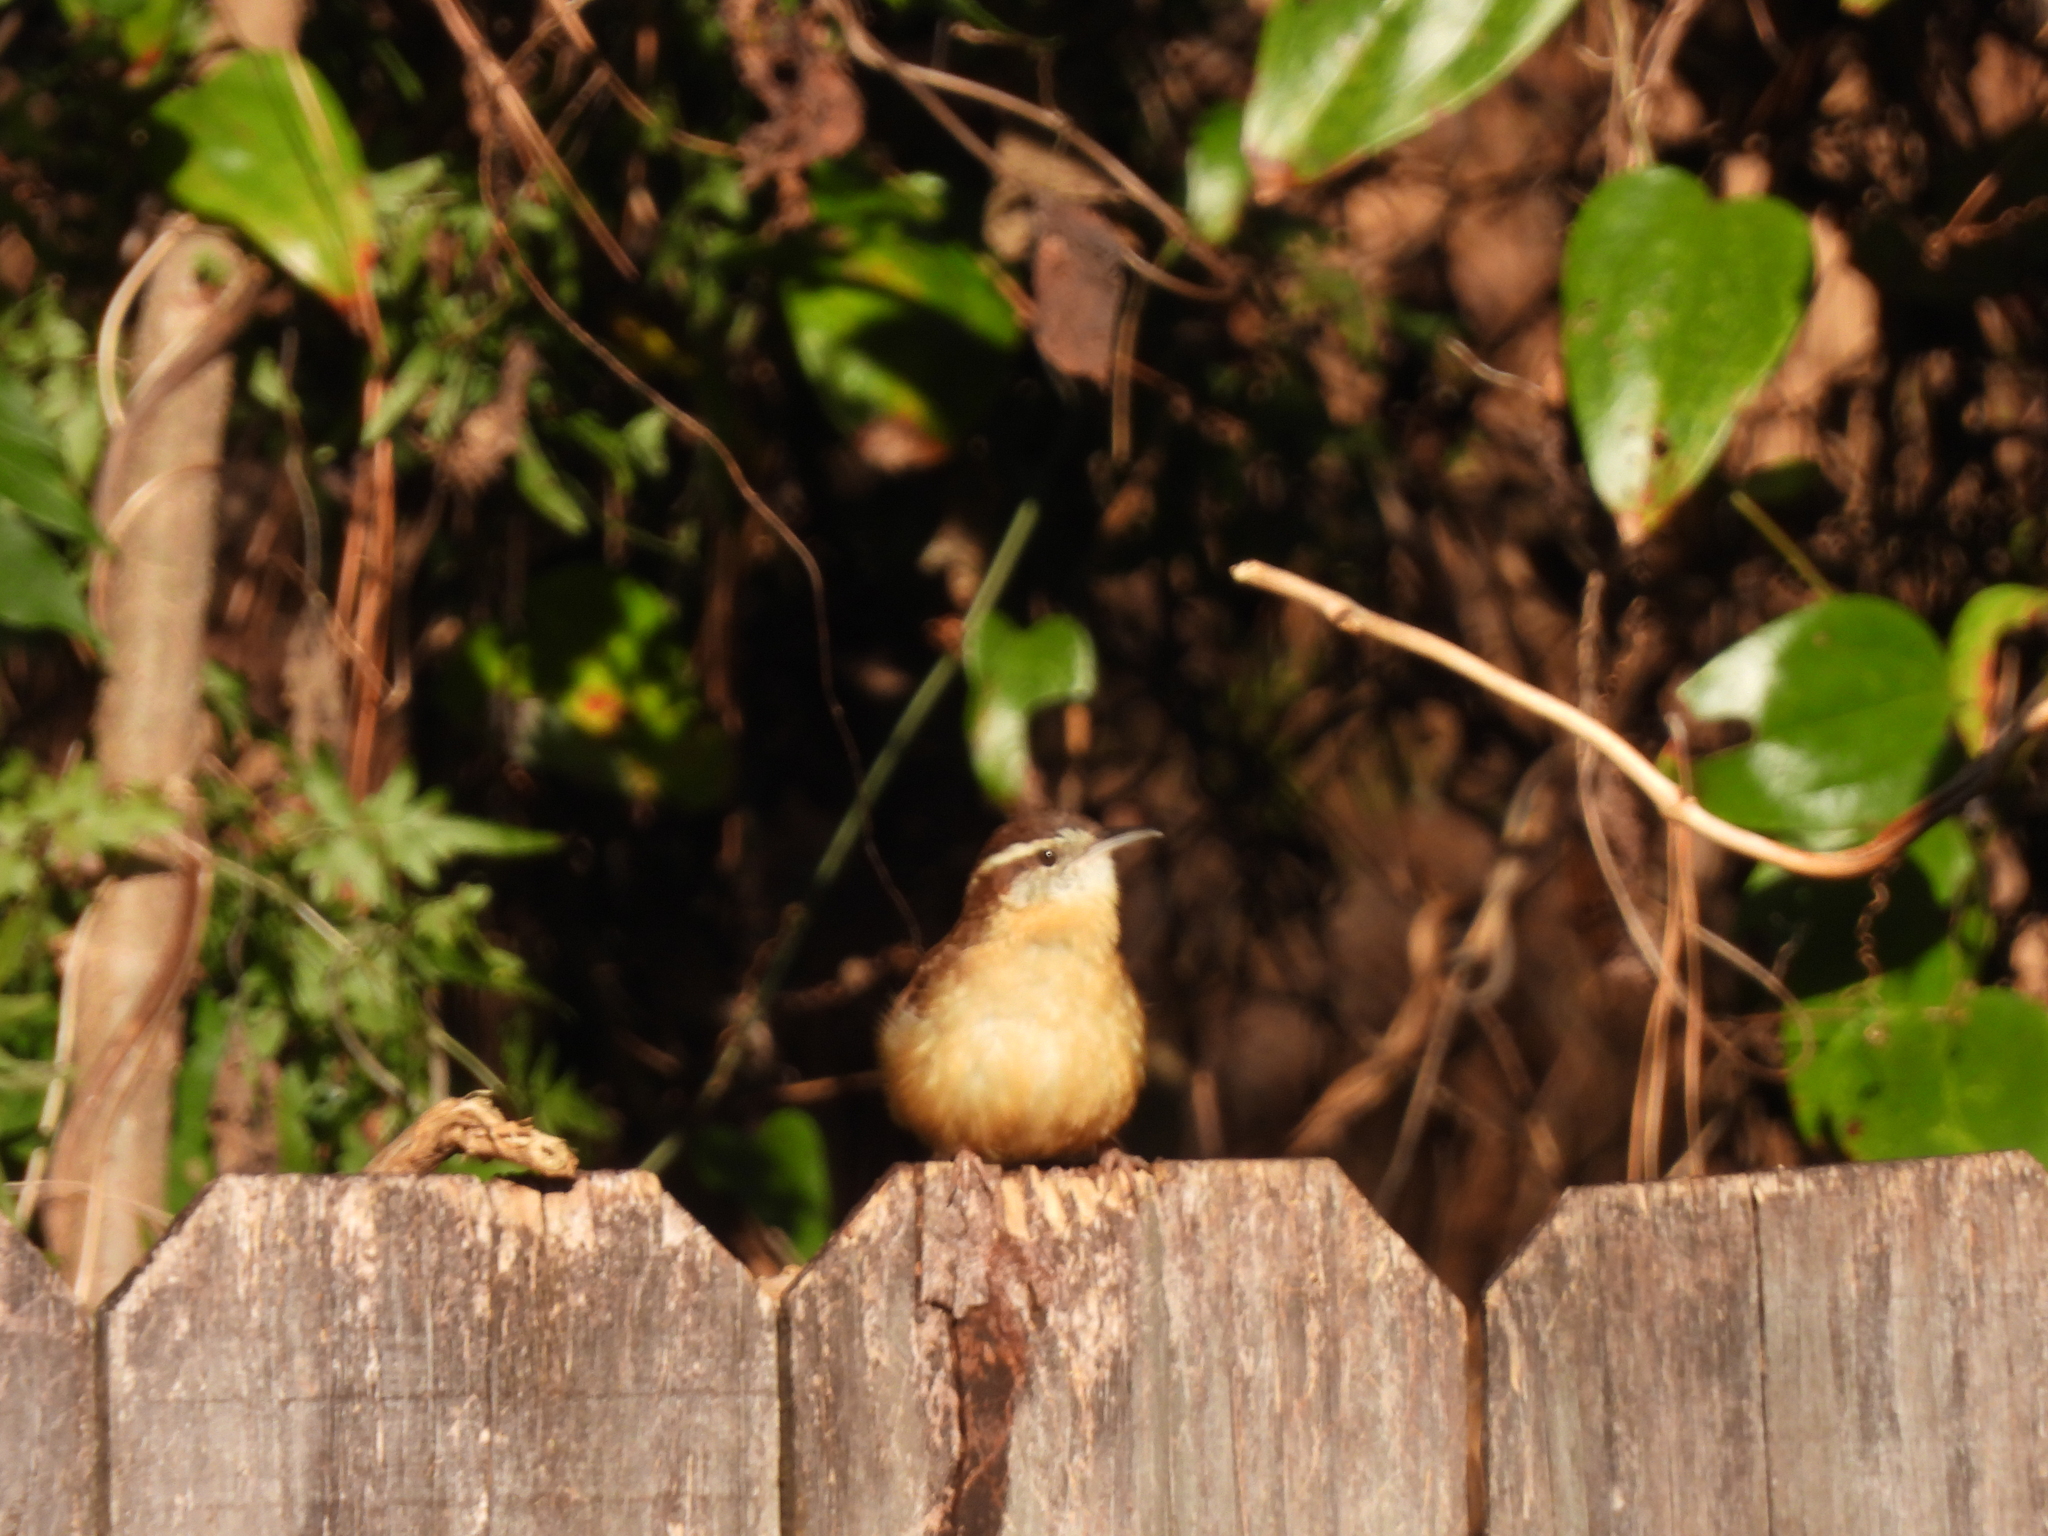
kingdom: Animalia
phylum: Chordata
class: Aves
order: Passeriformes
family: Troglodytidae
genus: Thryothorus
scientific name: Thryothorus ludovicianus
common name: Carolina wren
